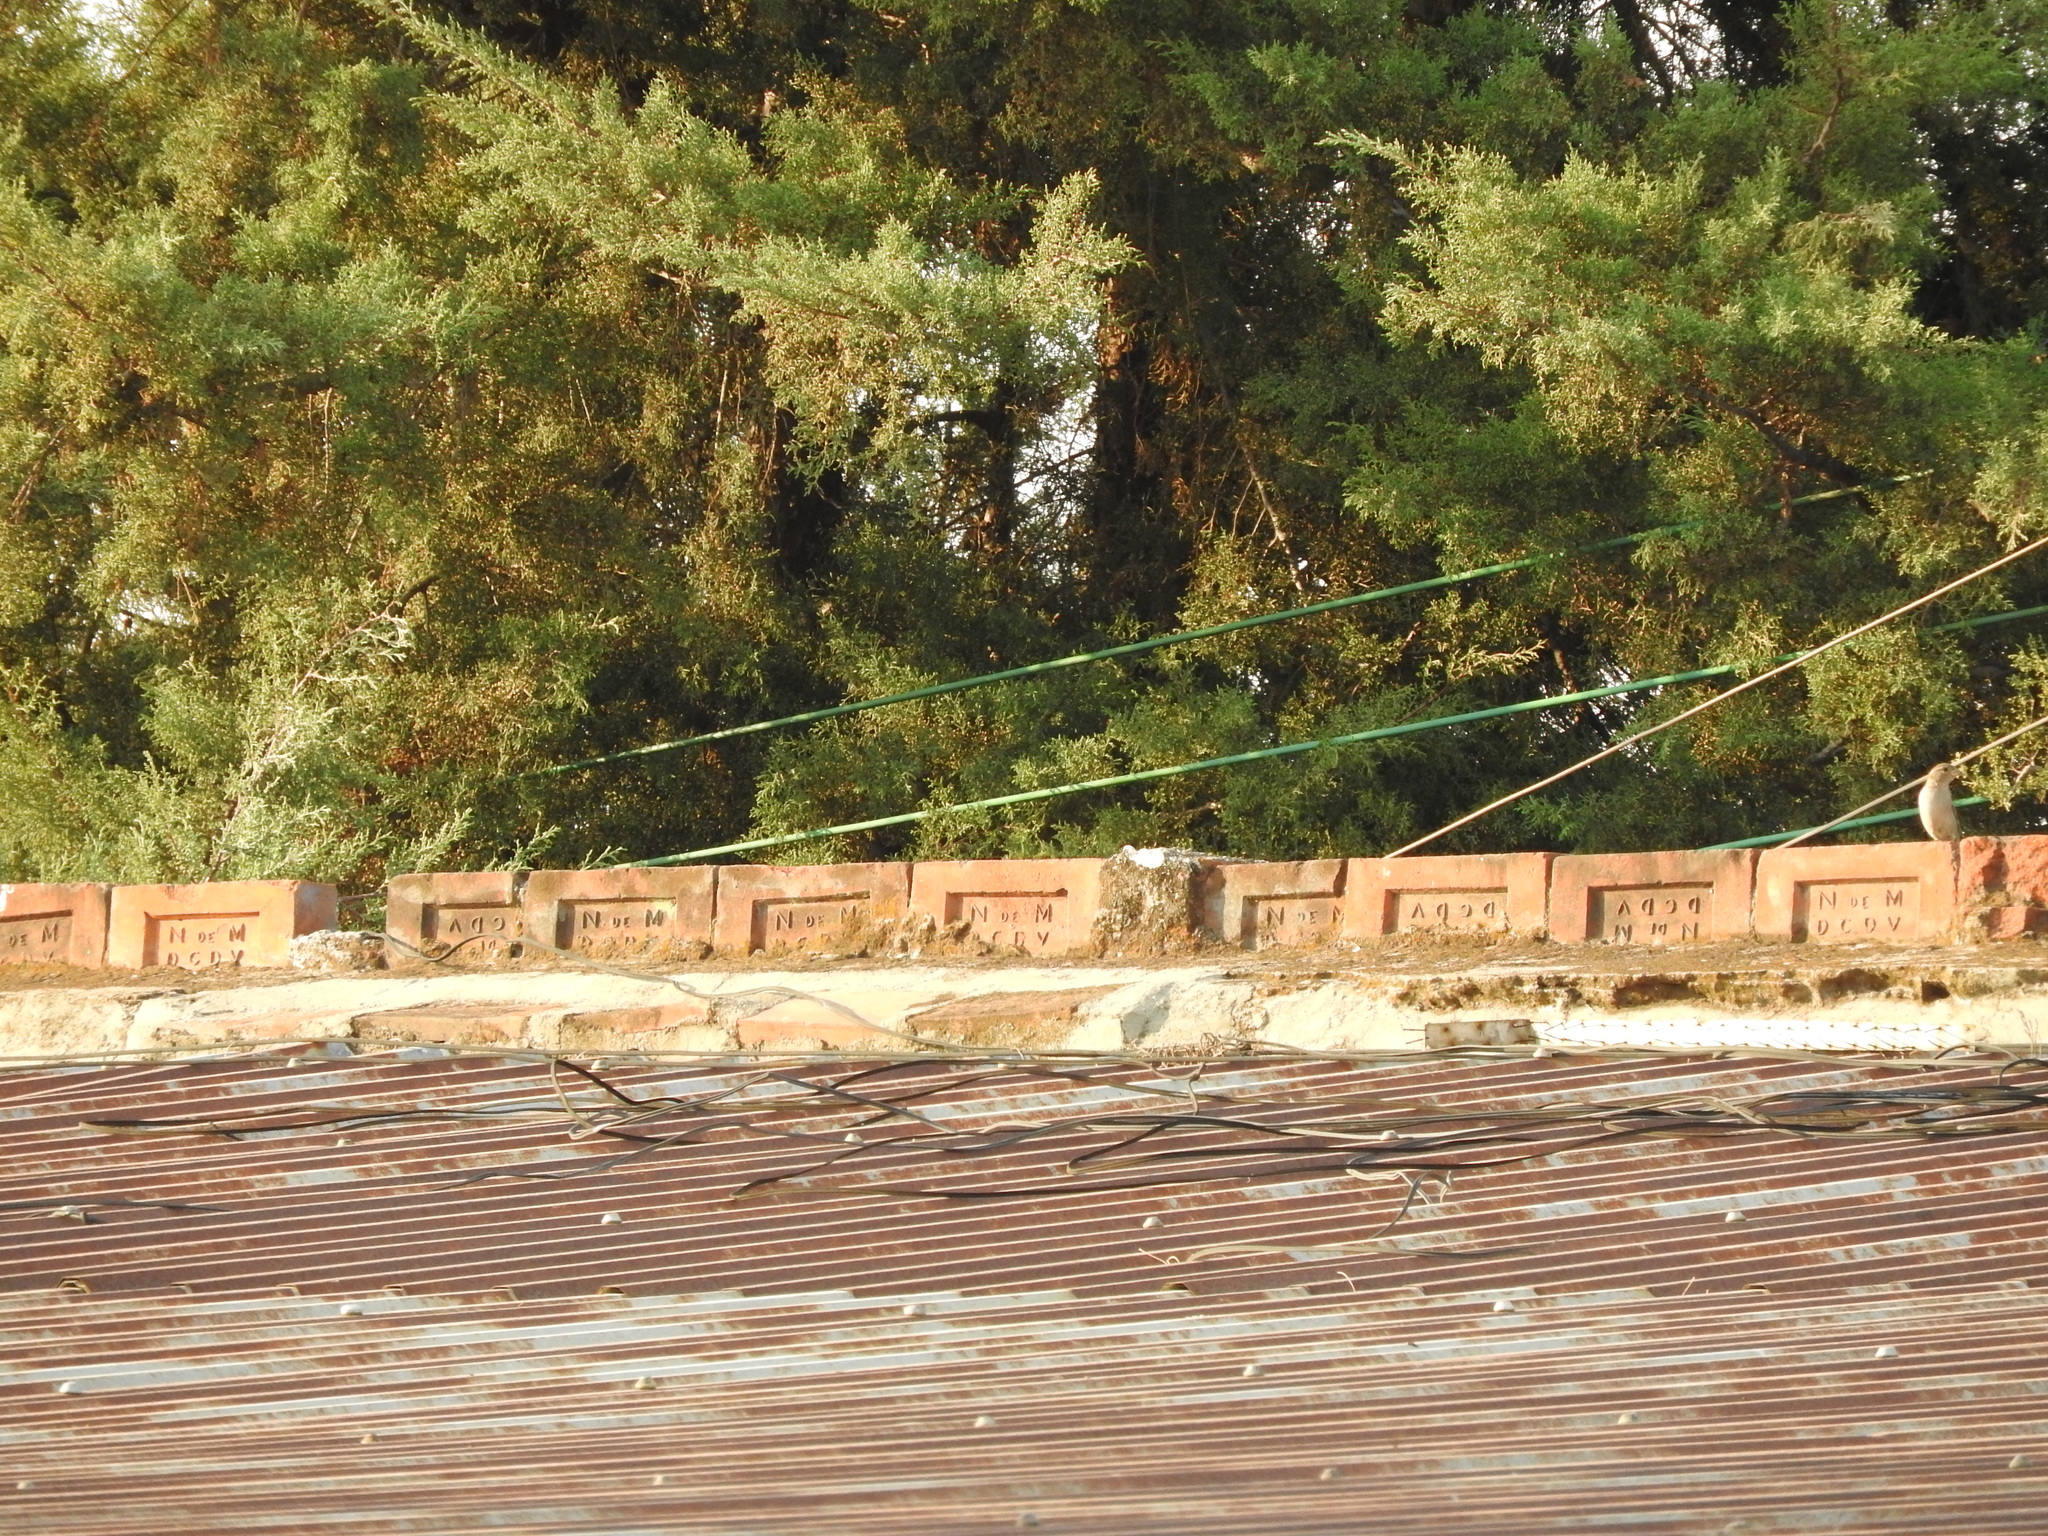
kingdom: Animalia
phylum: Chordata
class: Aves
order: Passeriformes
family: Passeridae
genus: Passer
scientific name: Passer domesticus
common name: House sparrow
